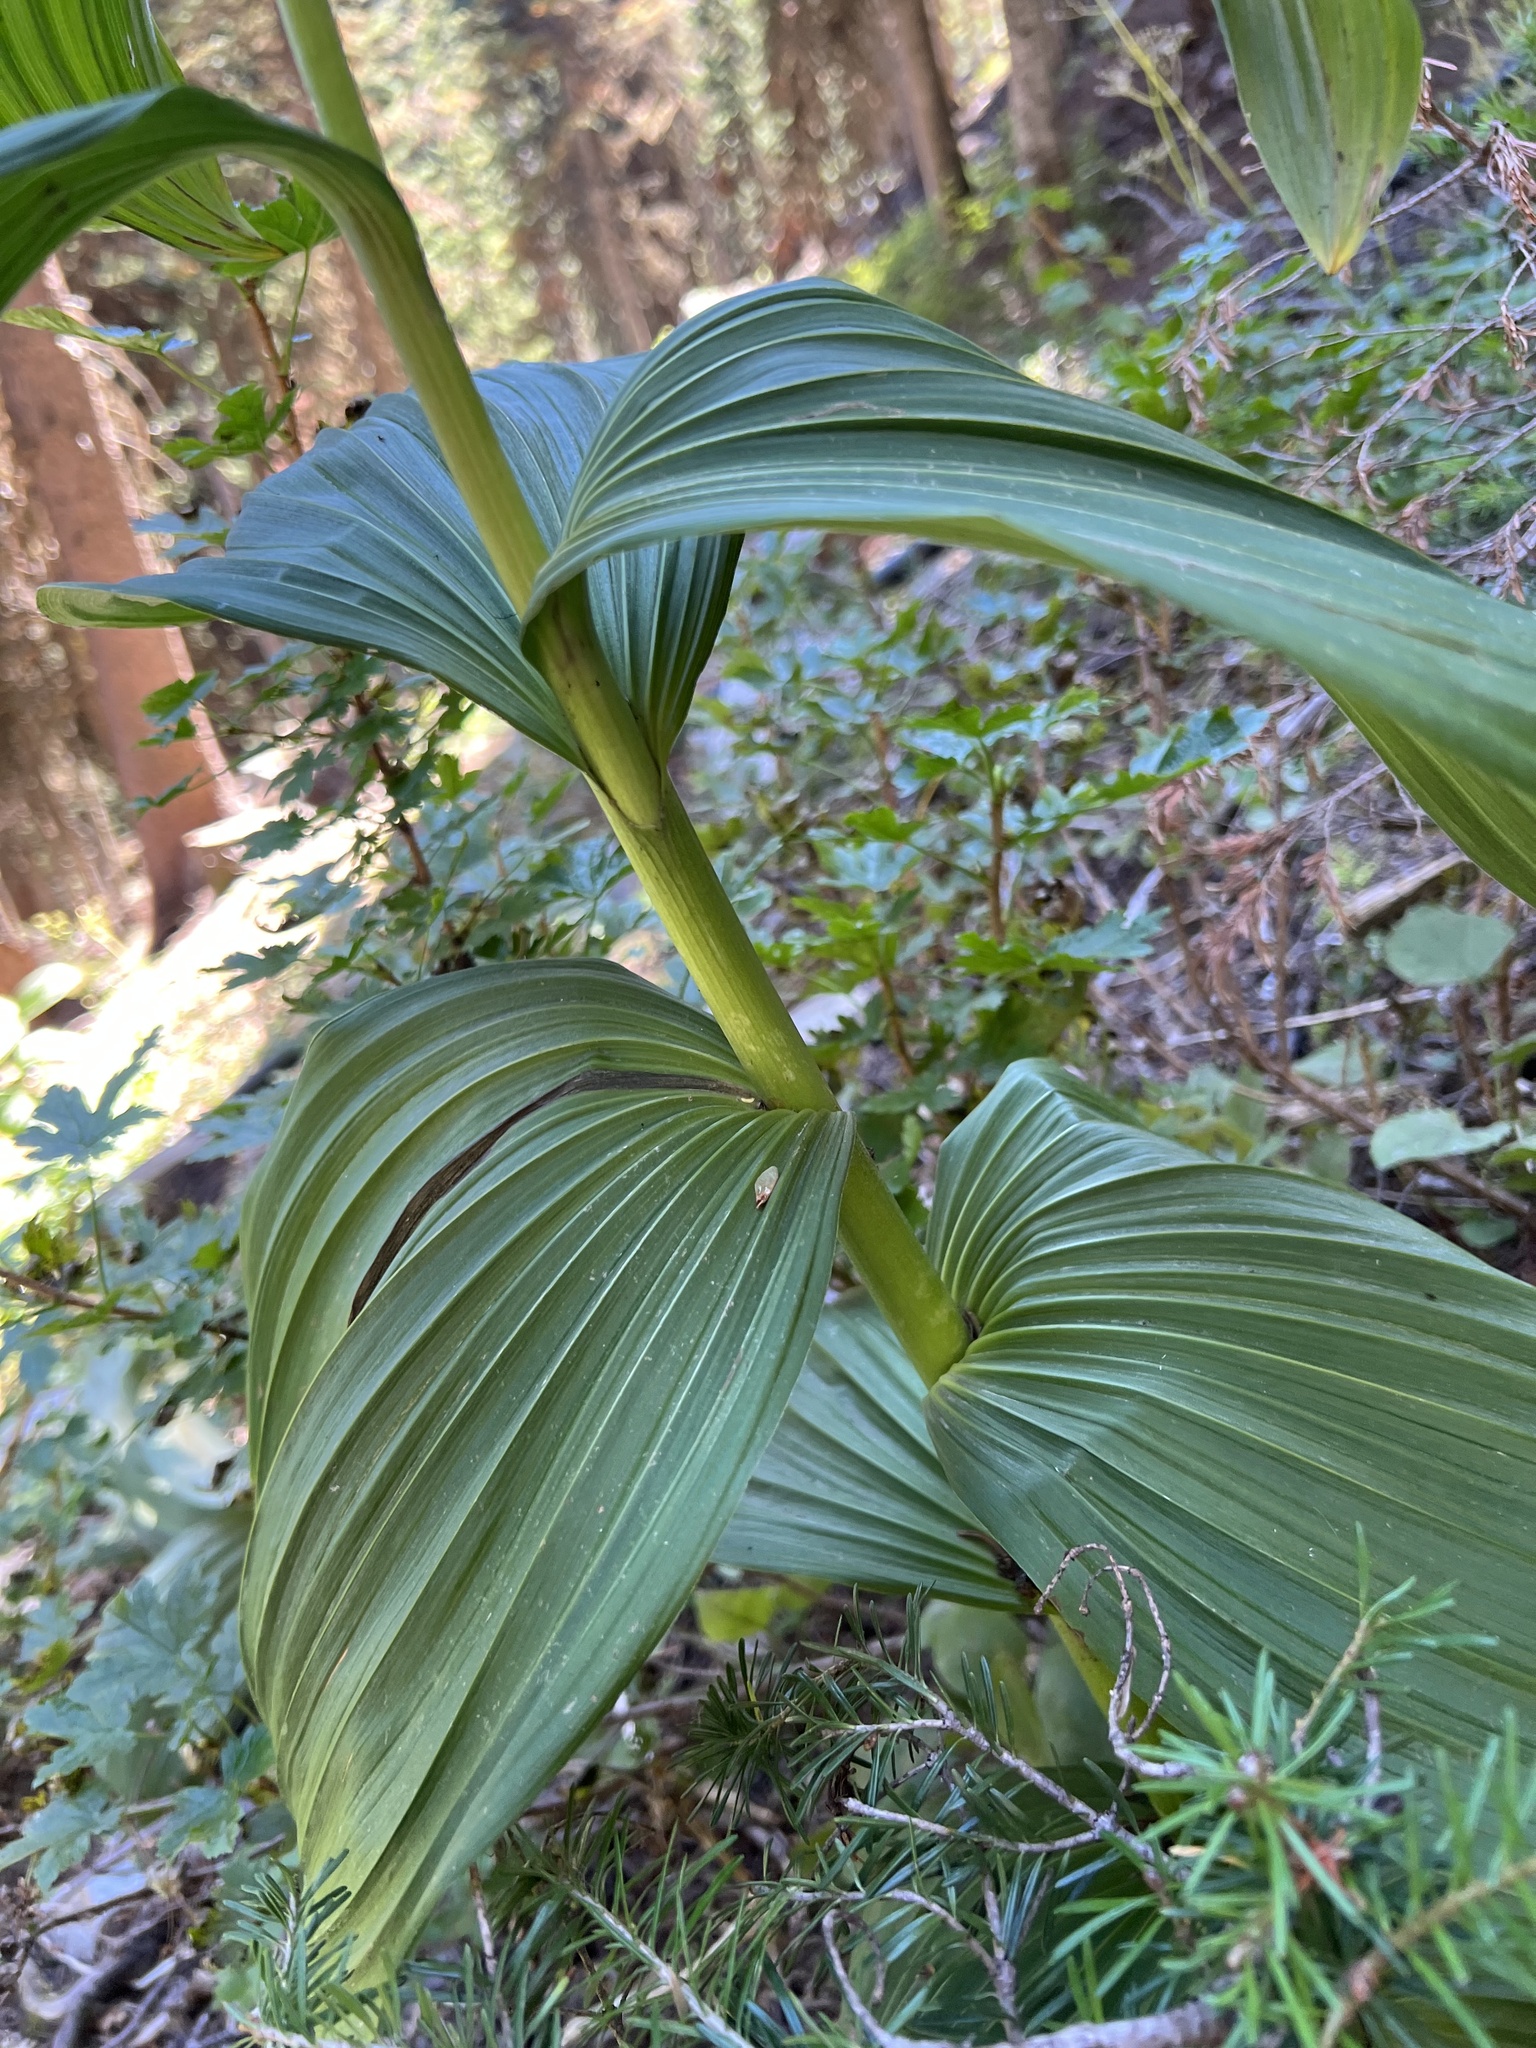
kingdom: Plantae
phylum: Tracheophyta
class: Liliopsida
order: Liliales
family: Melanthiaceae
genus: Veratrum
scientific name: Veratrum viride
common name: American false hellebore
